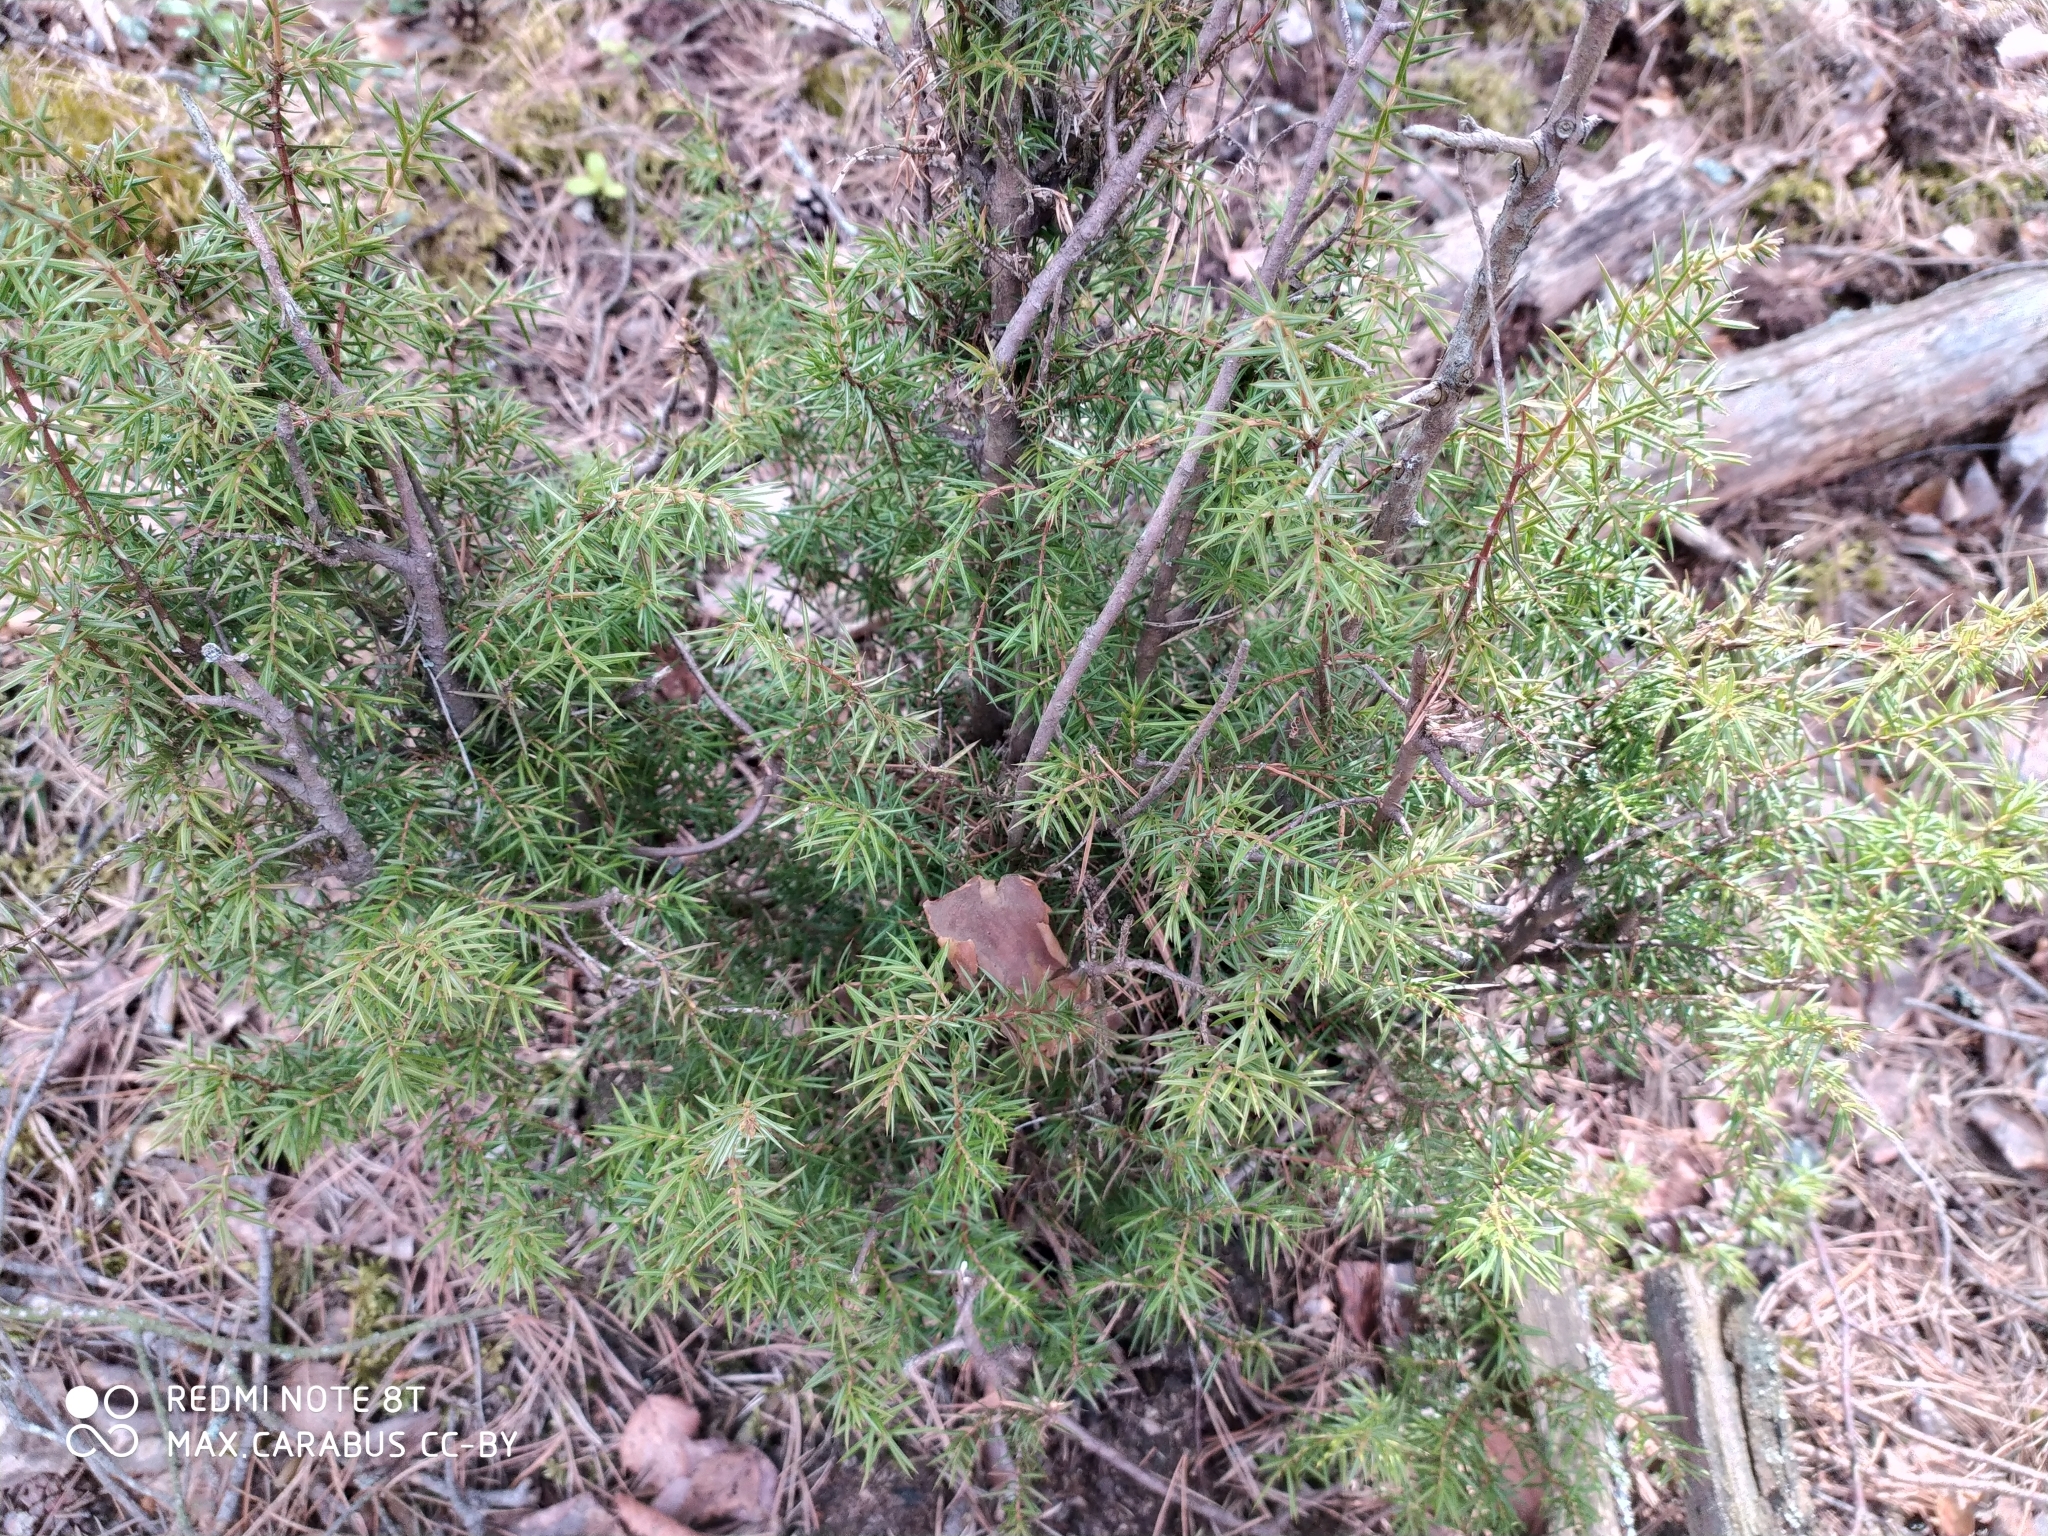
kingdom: Plantae
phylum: Tracheophyta
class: Pinopsida
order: Pinales
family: Cupressaceae
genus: Juniperus
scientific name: Juniperus communis
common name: Common juniper
